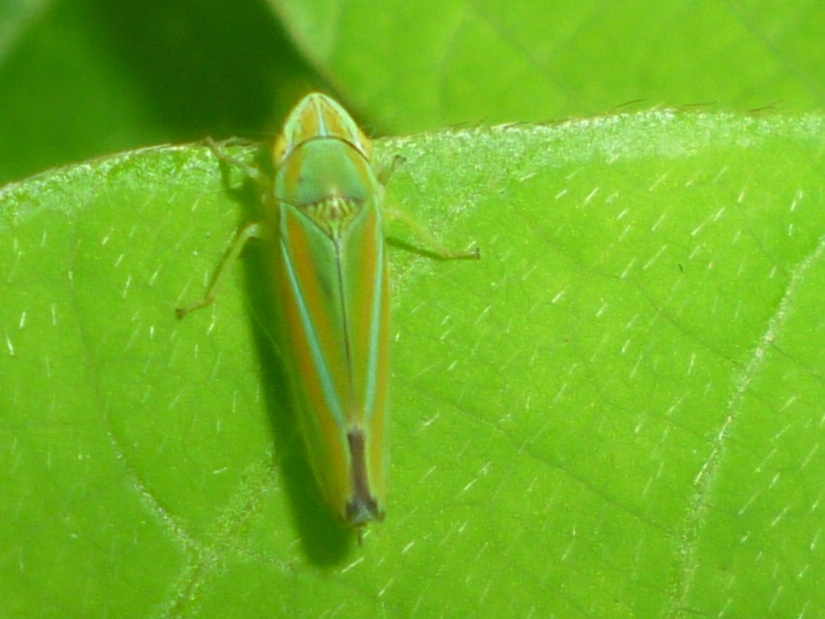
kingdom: Animalia
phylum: Arthropoda
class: Insecta
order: Hemiptera
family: Cicadellidae
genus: Graphocephala
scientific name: Graphocephala versuta
